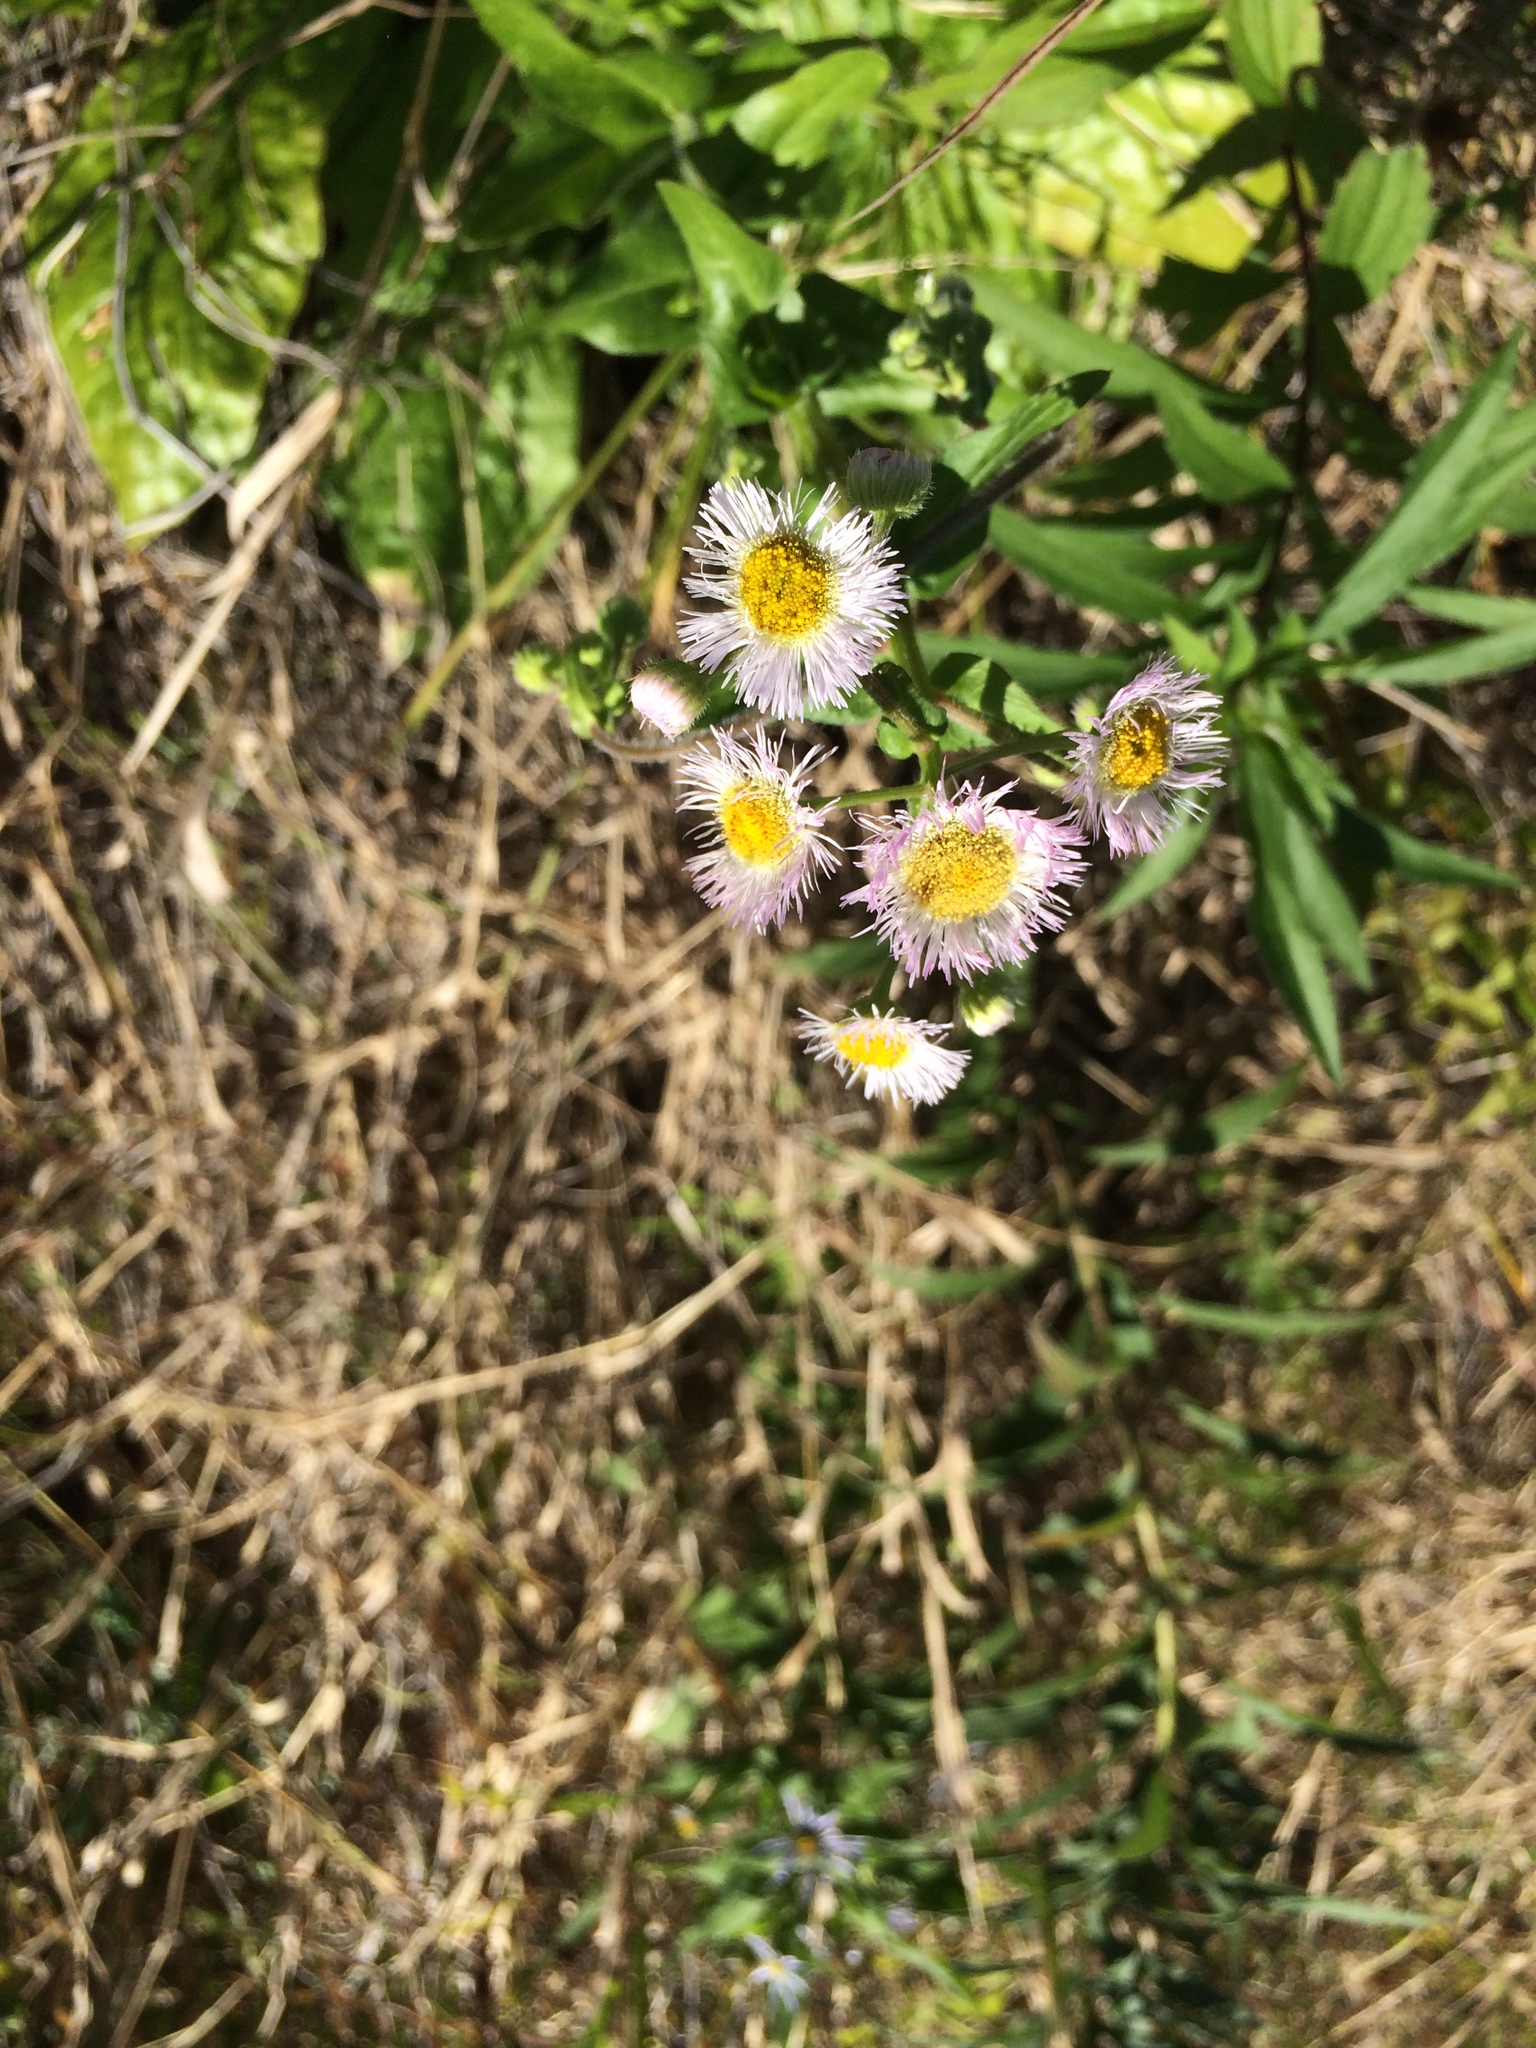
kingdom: Plantae
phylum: Tracheophyta
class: Magnoliopsida
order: Asterales
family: Asteraceae
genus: Erigeron
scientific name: Erigeron philadelphicus
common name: Robin's-plantain
